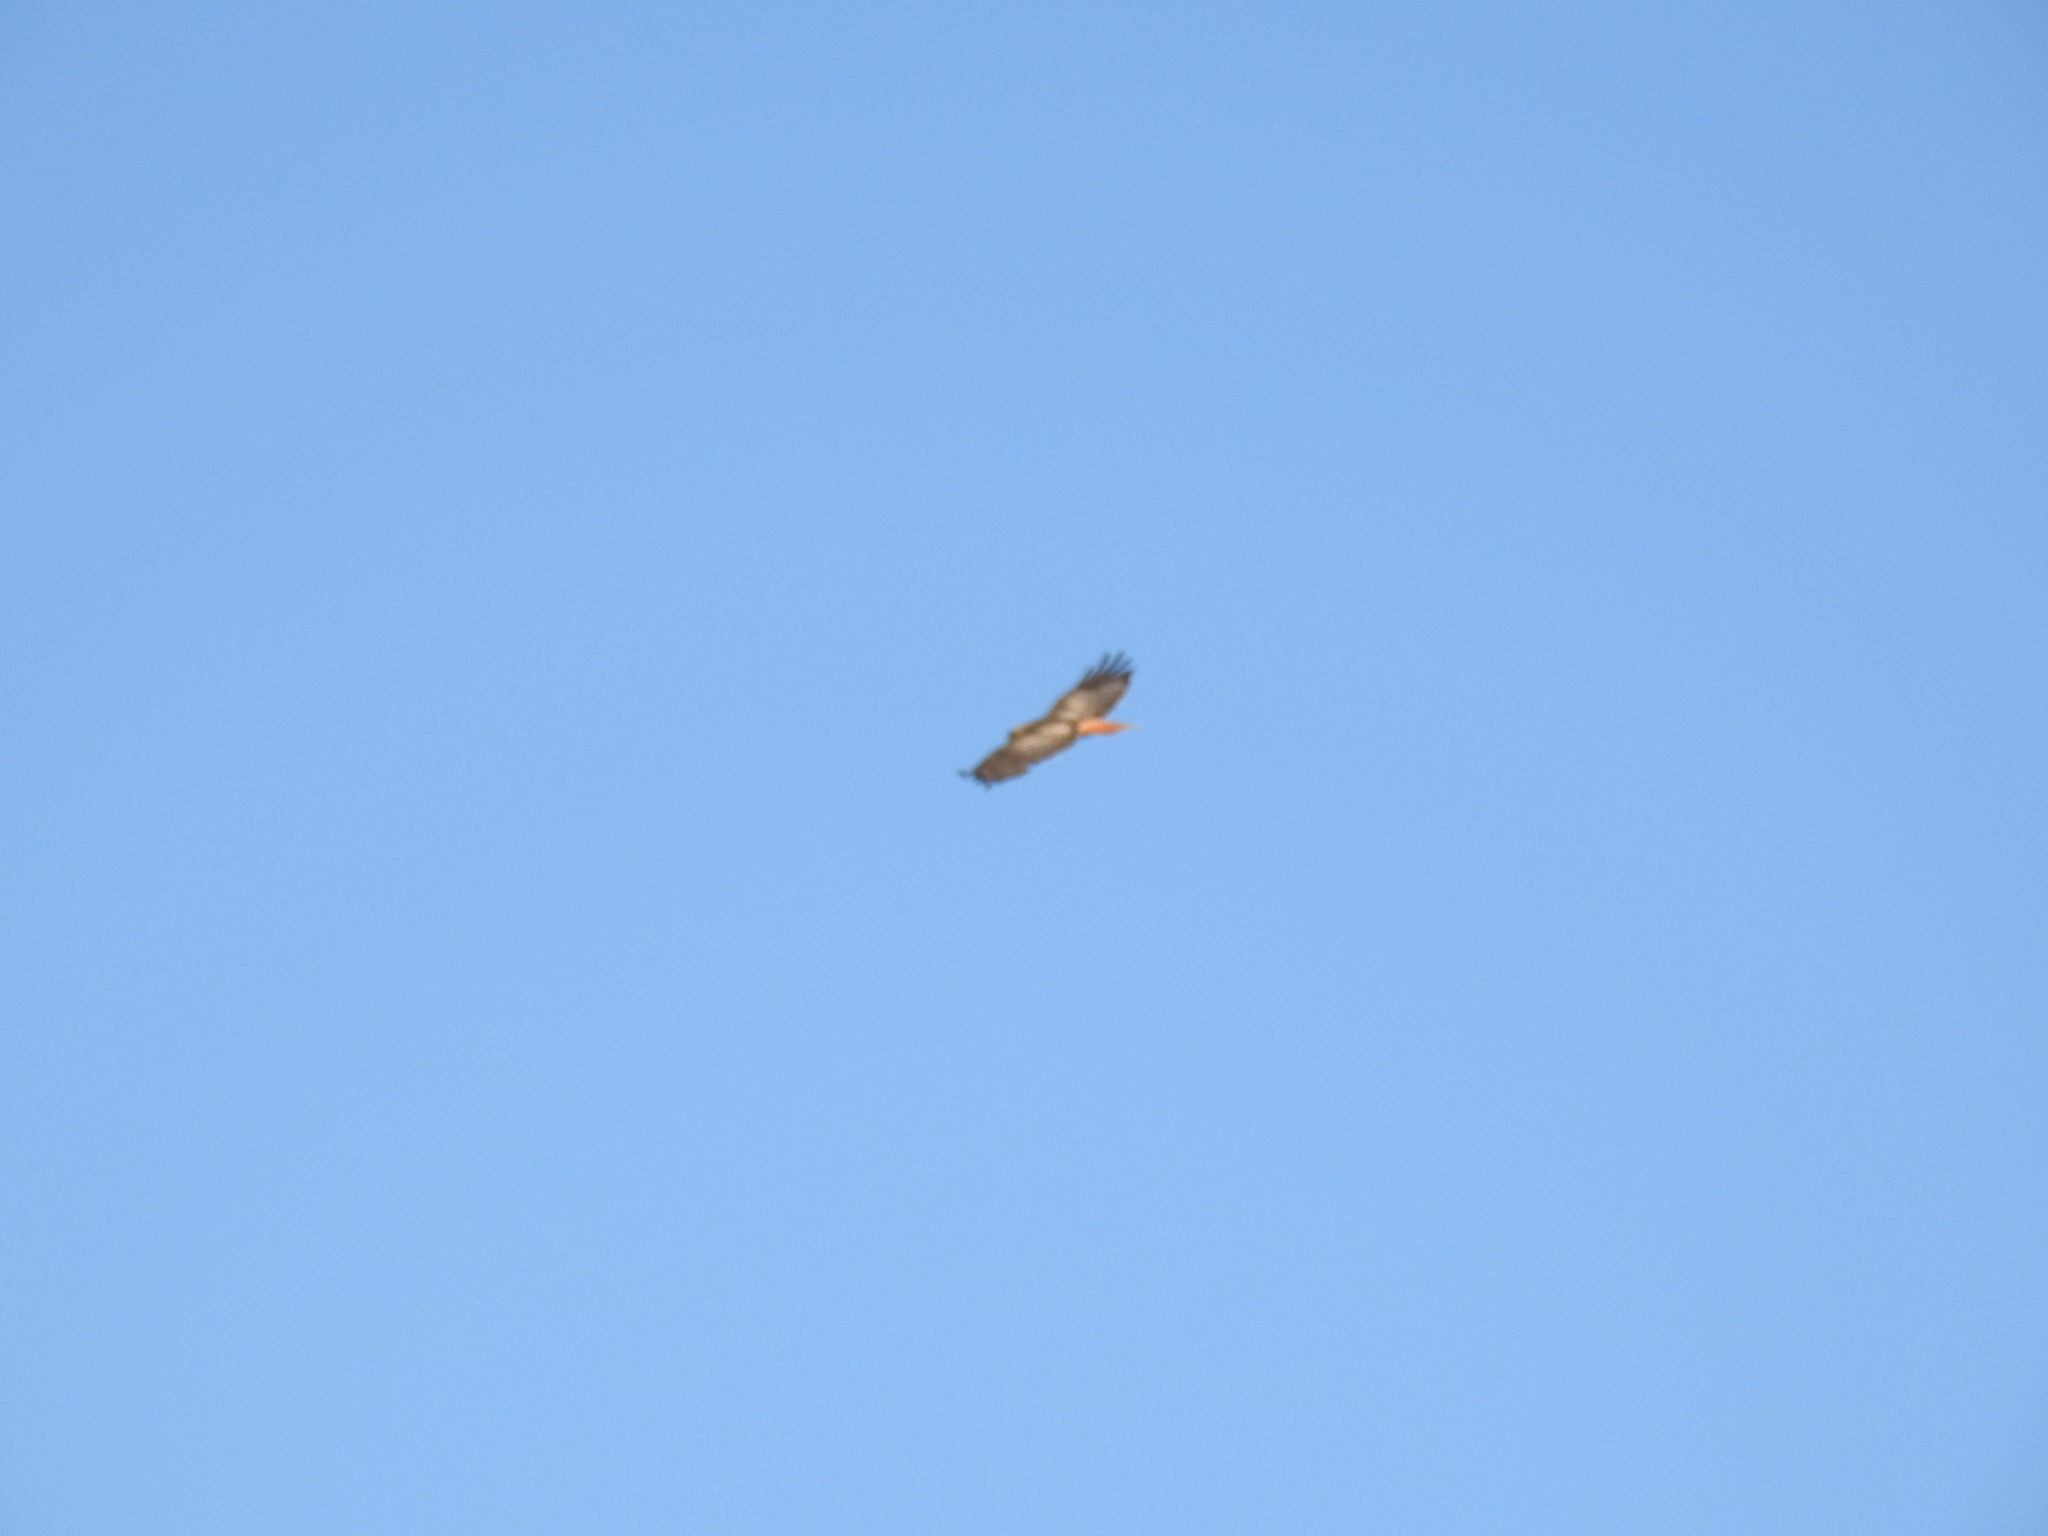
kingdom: Animalia
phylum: Chordata
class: Aves
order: Accipitriformes
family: Accipitridae
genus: Buteo
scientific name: Buteo jamaicensis
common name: Red-tailed hawk
